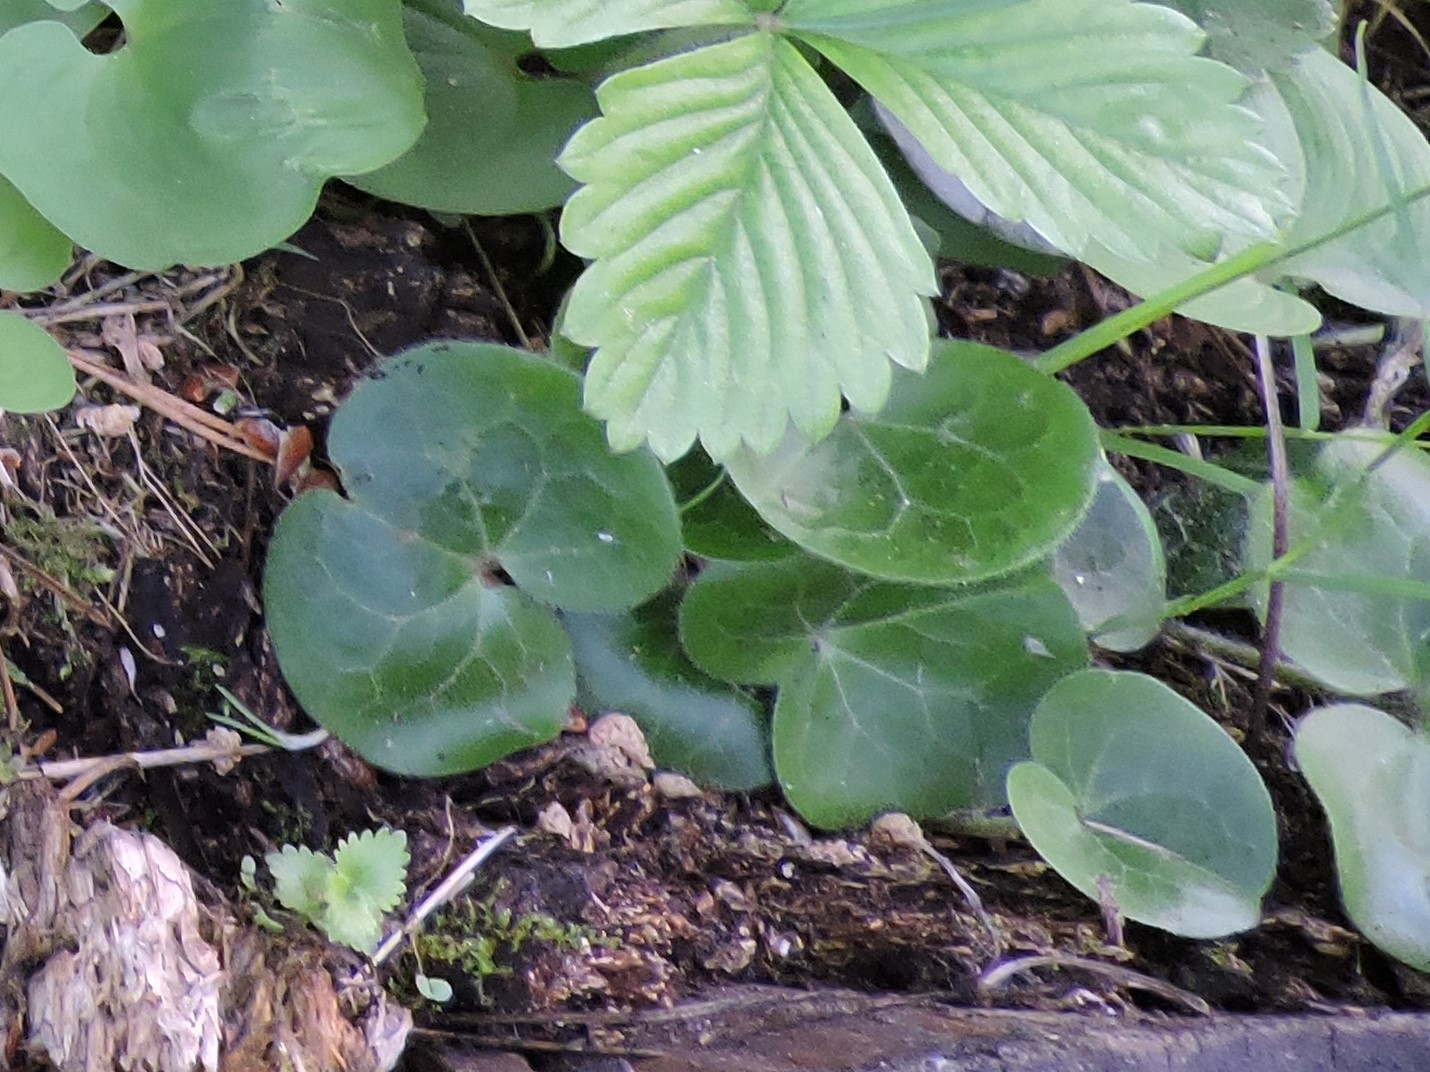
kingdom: Plantae
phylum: Tracheophyta
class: Magnoliopsida
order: Piperales
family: Aristolochiaceae
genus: Asarum
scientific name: Asarum europaeum
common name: Asarabacca
